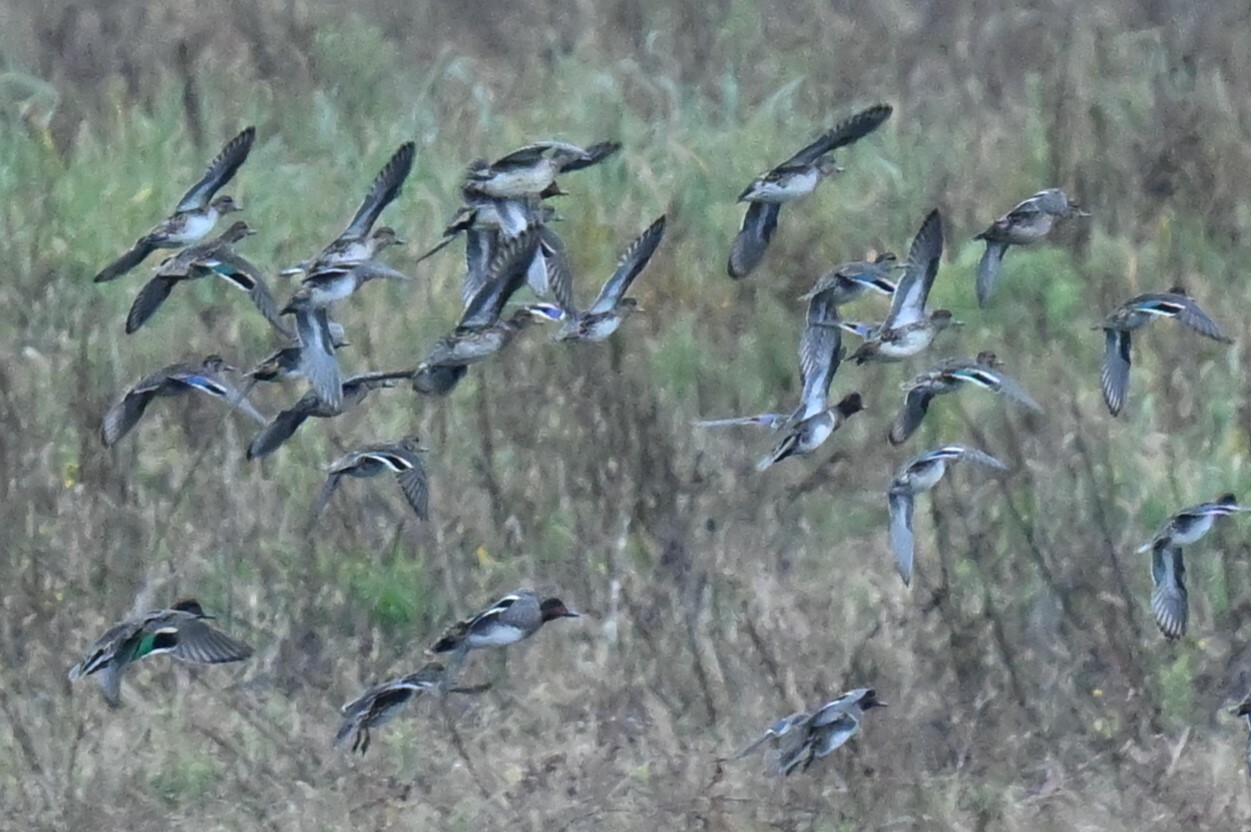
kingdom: Animalia
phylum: Chordata
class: Aves
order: Anseriformes
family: Anatidae
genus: Anas
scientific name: Anas crecca
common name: Eurasian teal
